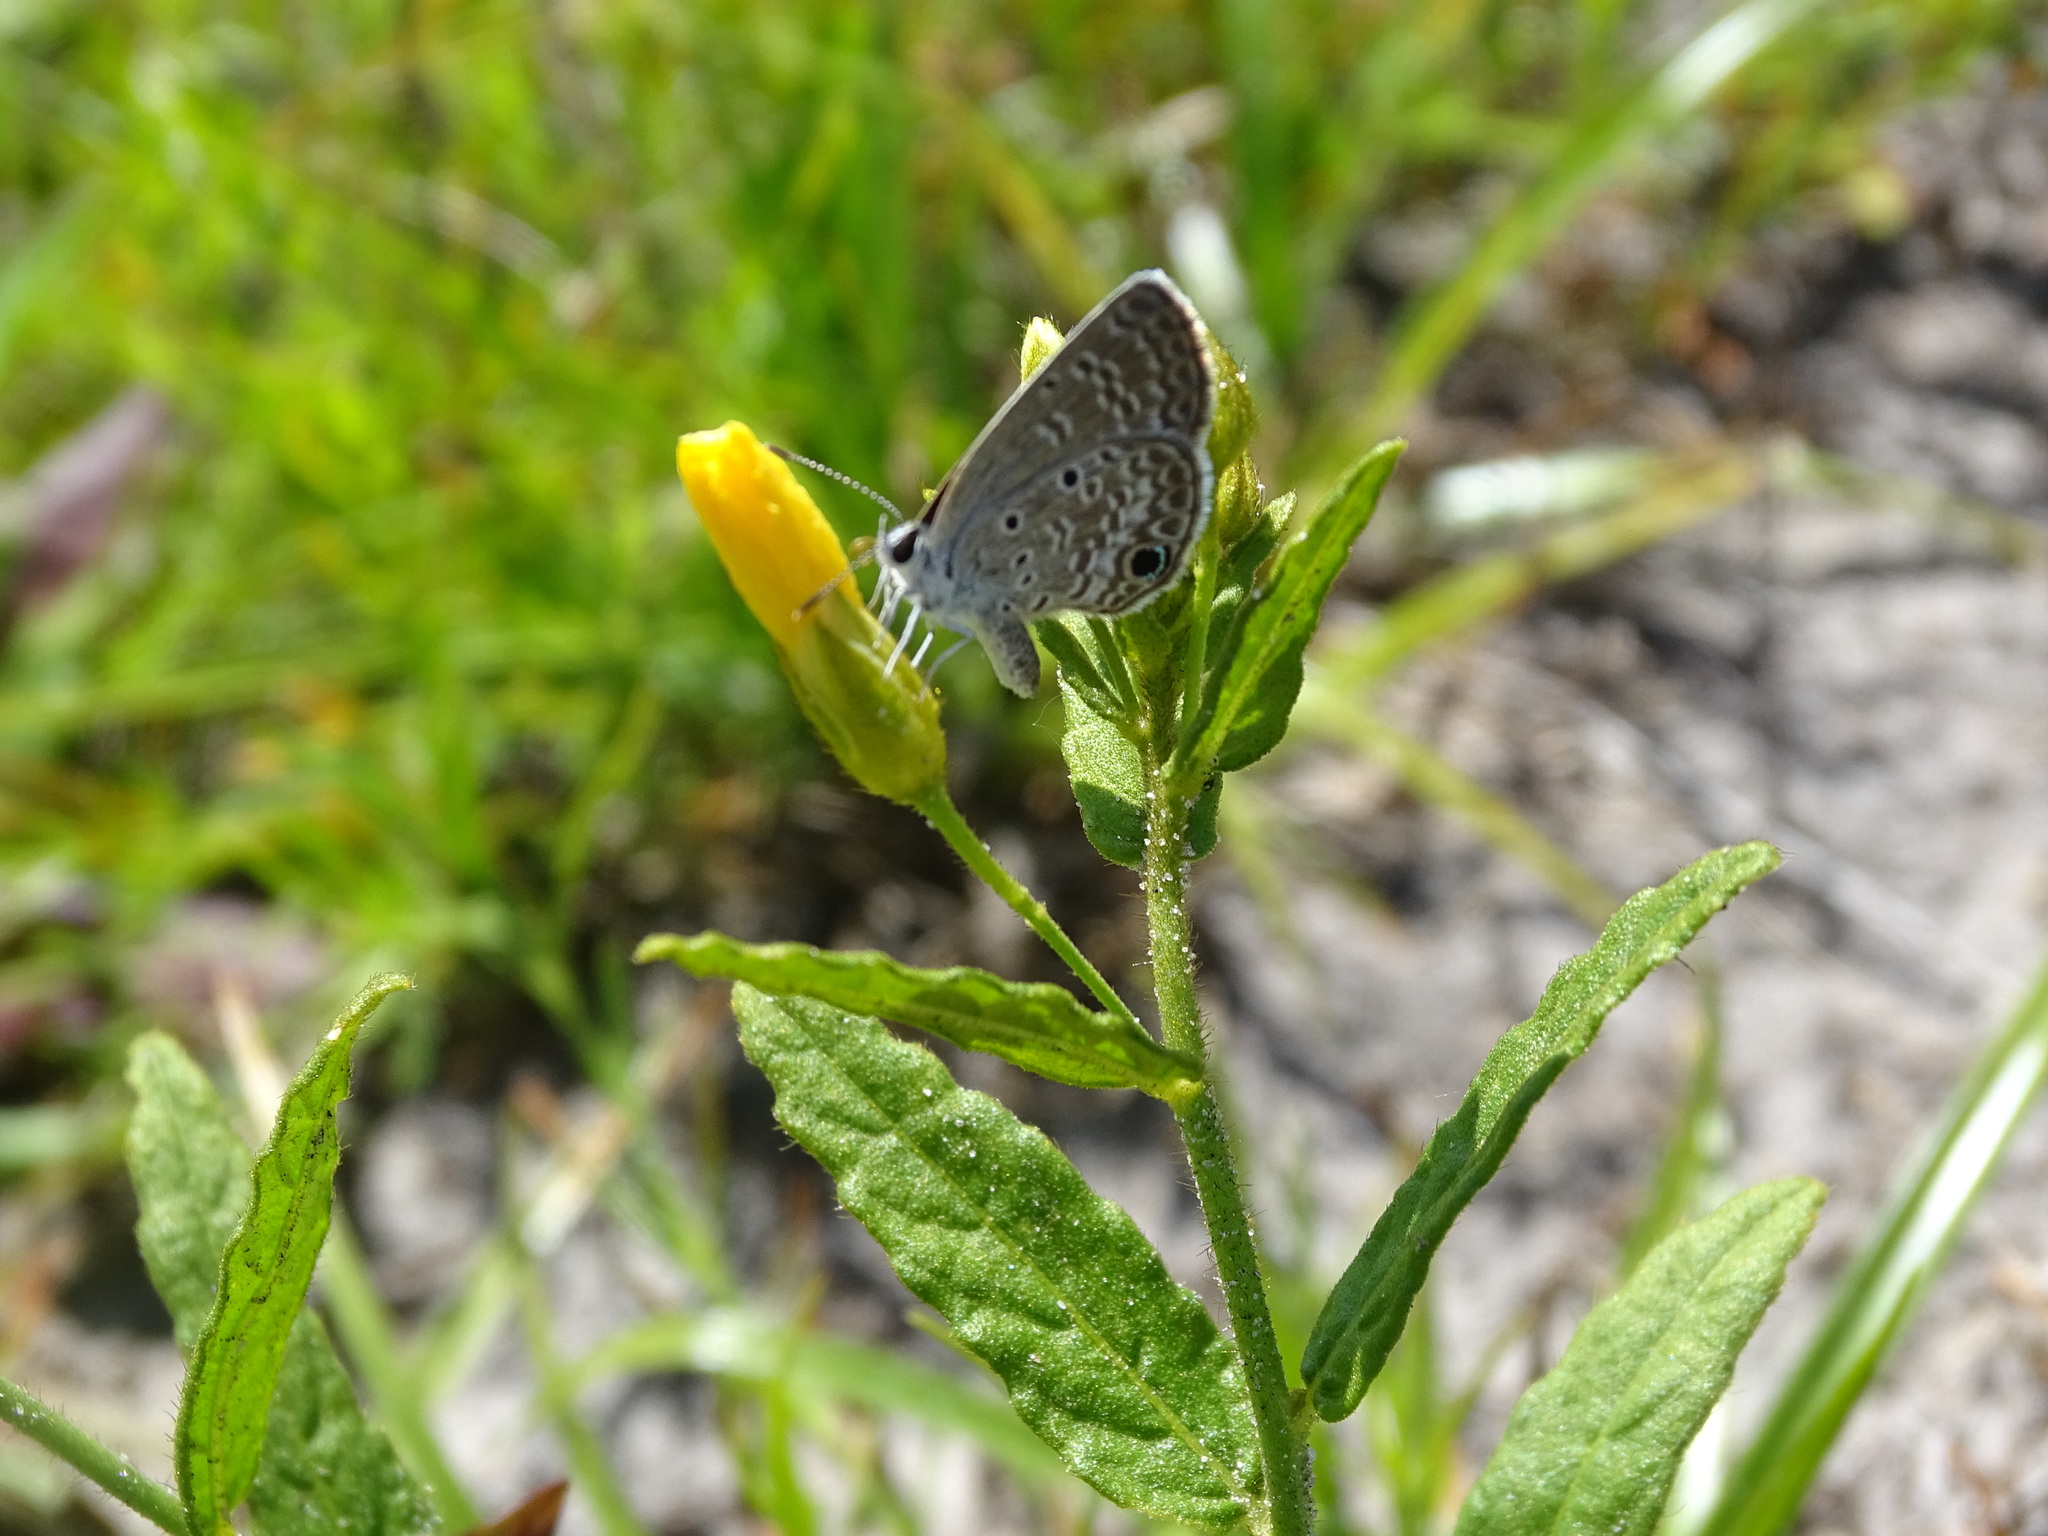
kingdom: Animalia
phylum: Arthropoda
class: Insecta
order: Lepidoptera
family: Lycaenidae
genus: Hemiargus
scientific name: Hemiargus ceraunus
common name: Ceraunus blue
